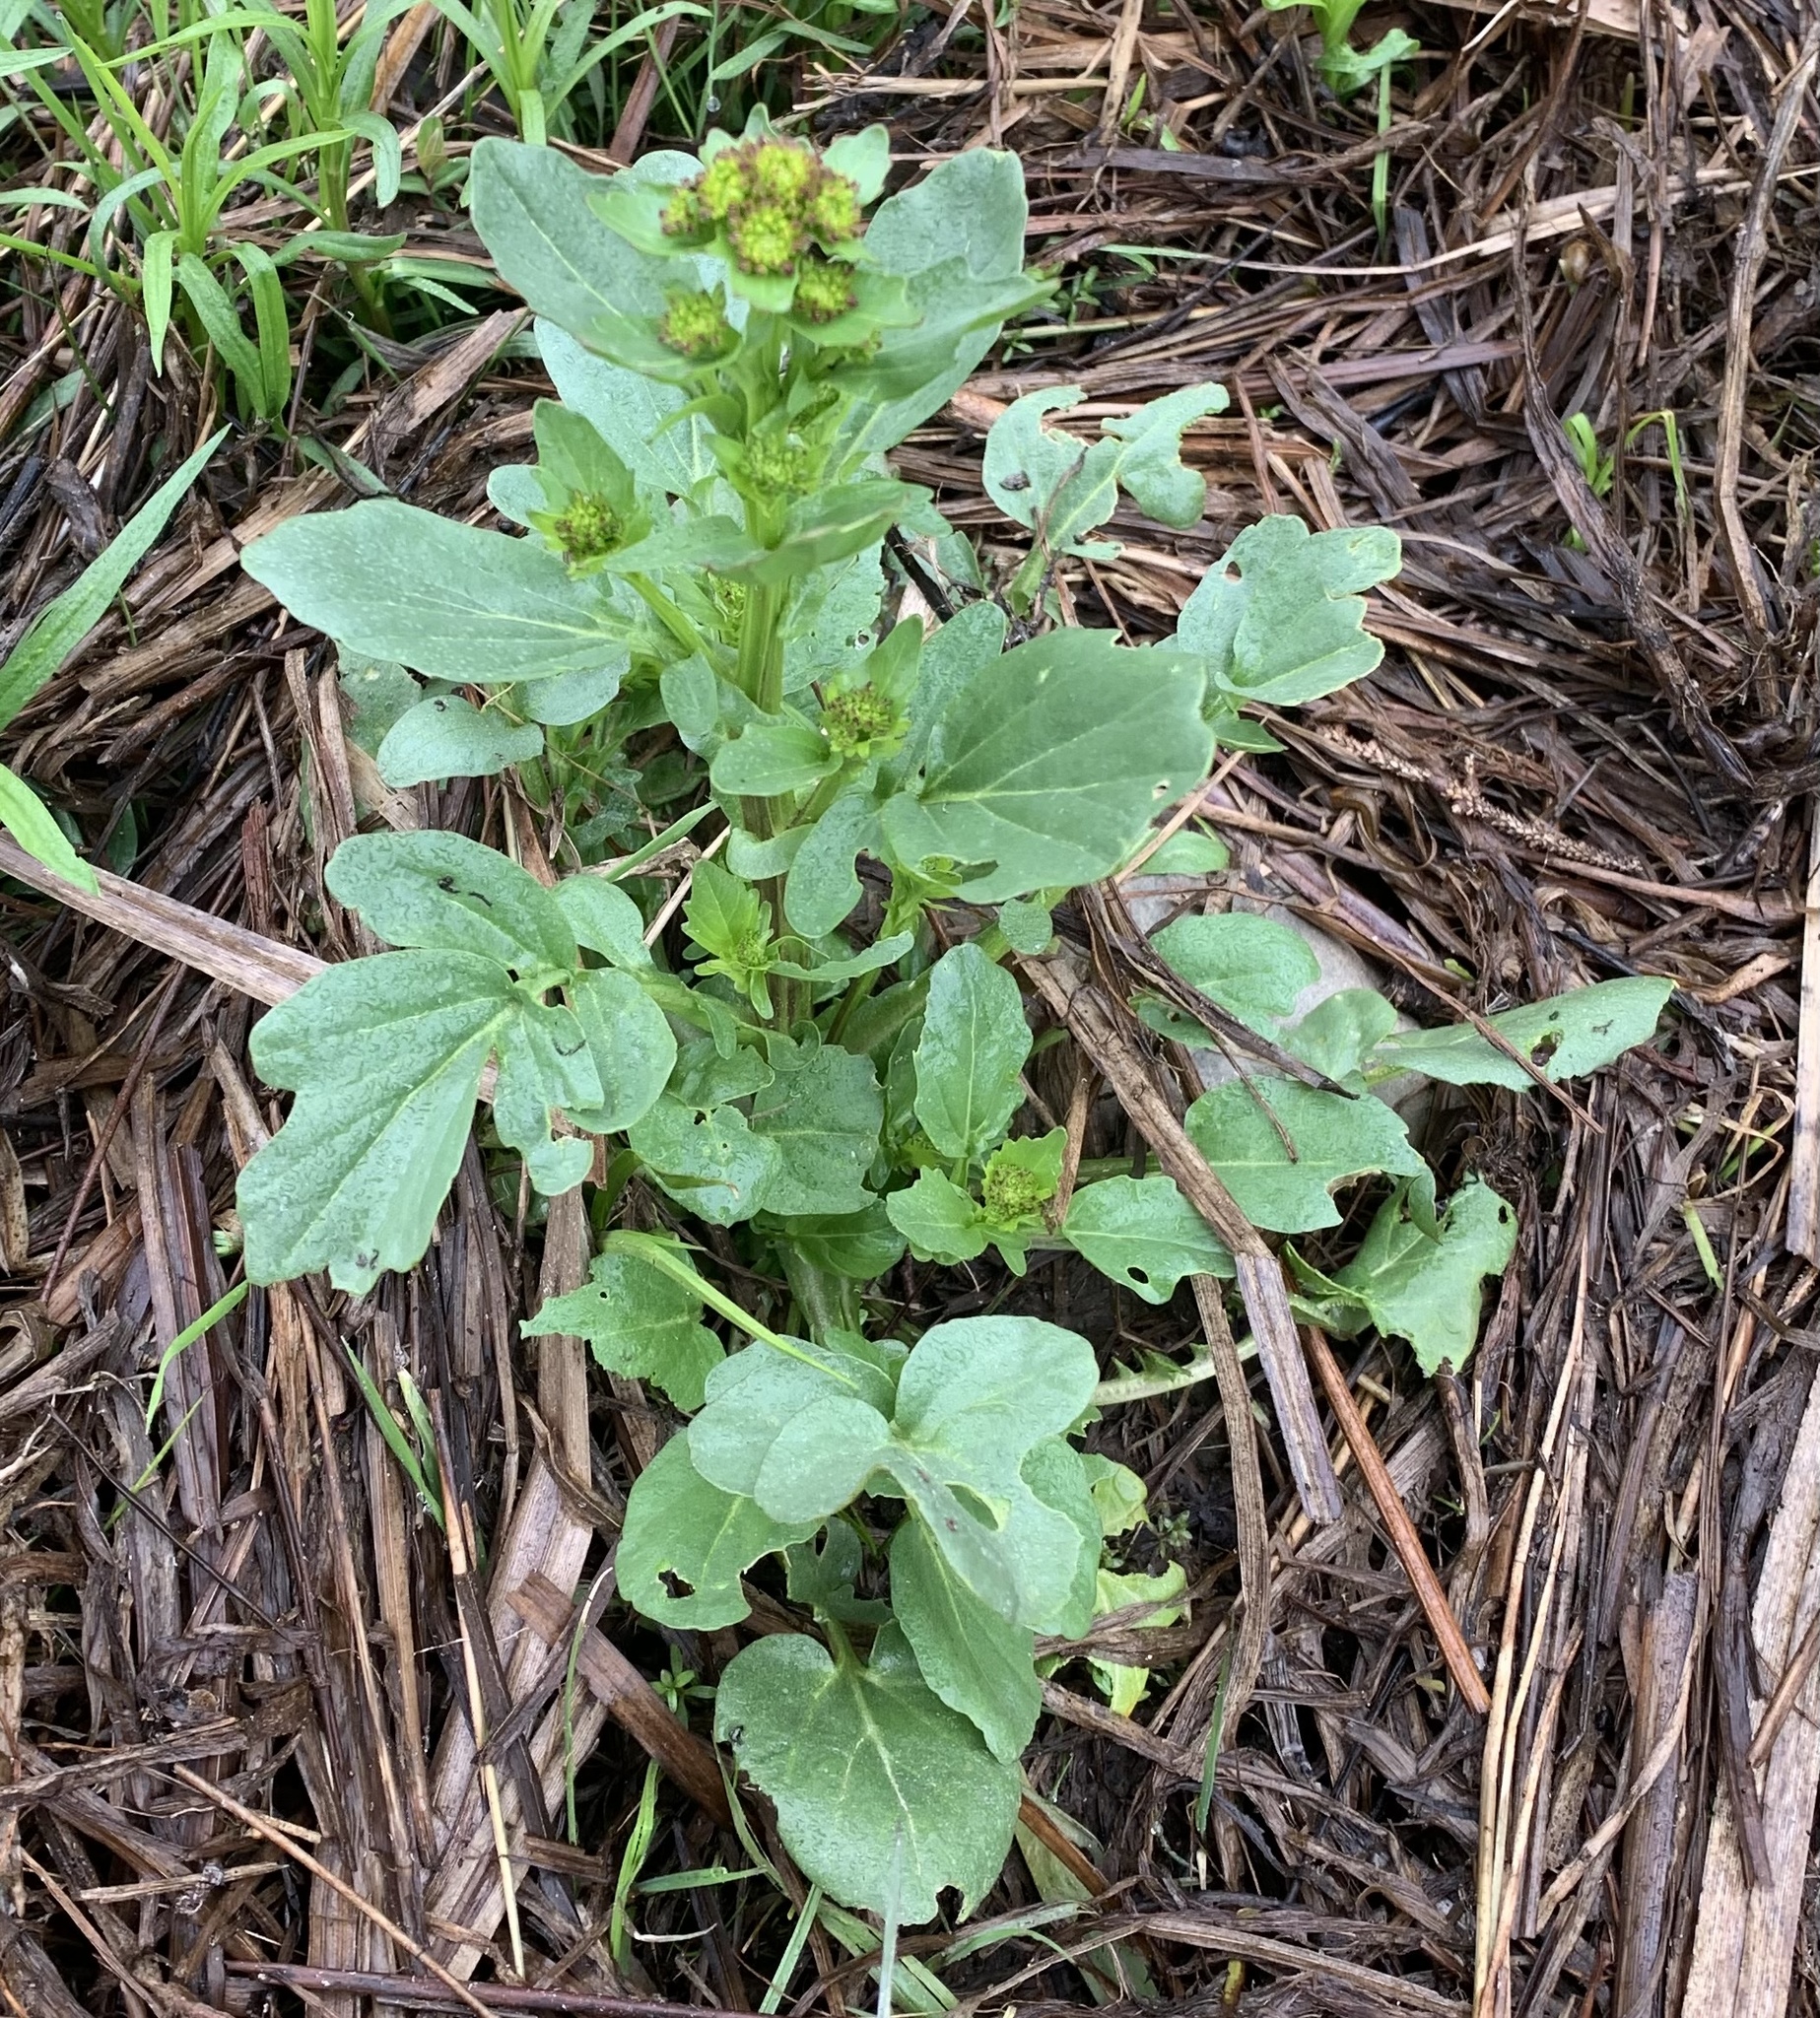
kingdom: Plantae
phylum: Tracheophyta
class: Magnoliopsida
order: Brassicales
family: Brassicaceae
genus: Barbarea
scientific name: Barbarea vulgaris
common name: Cressy-greens
